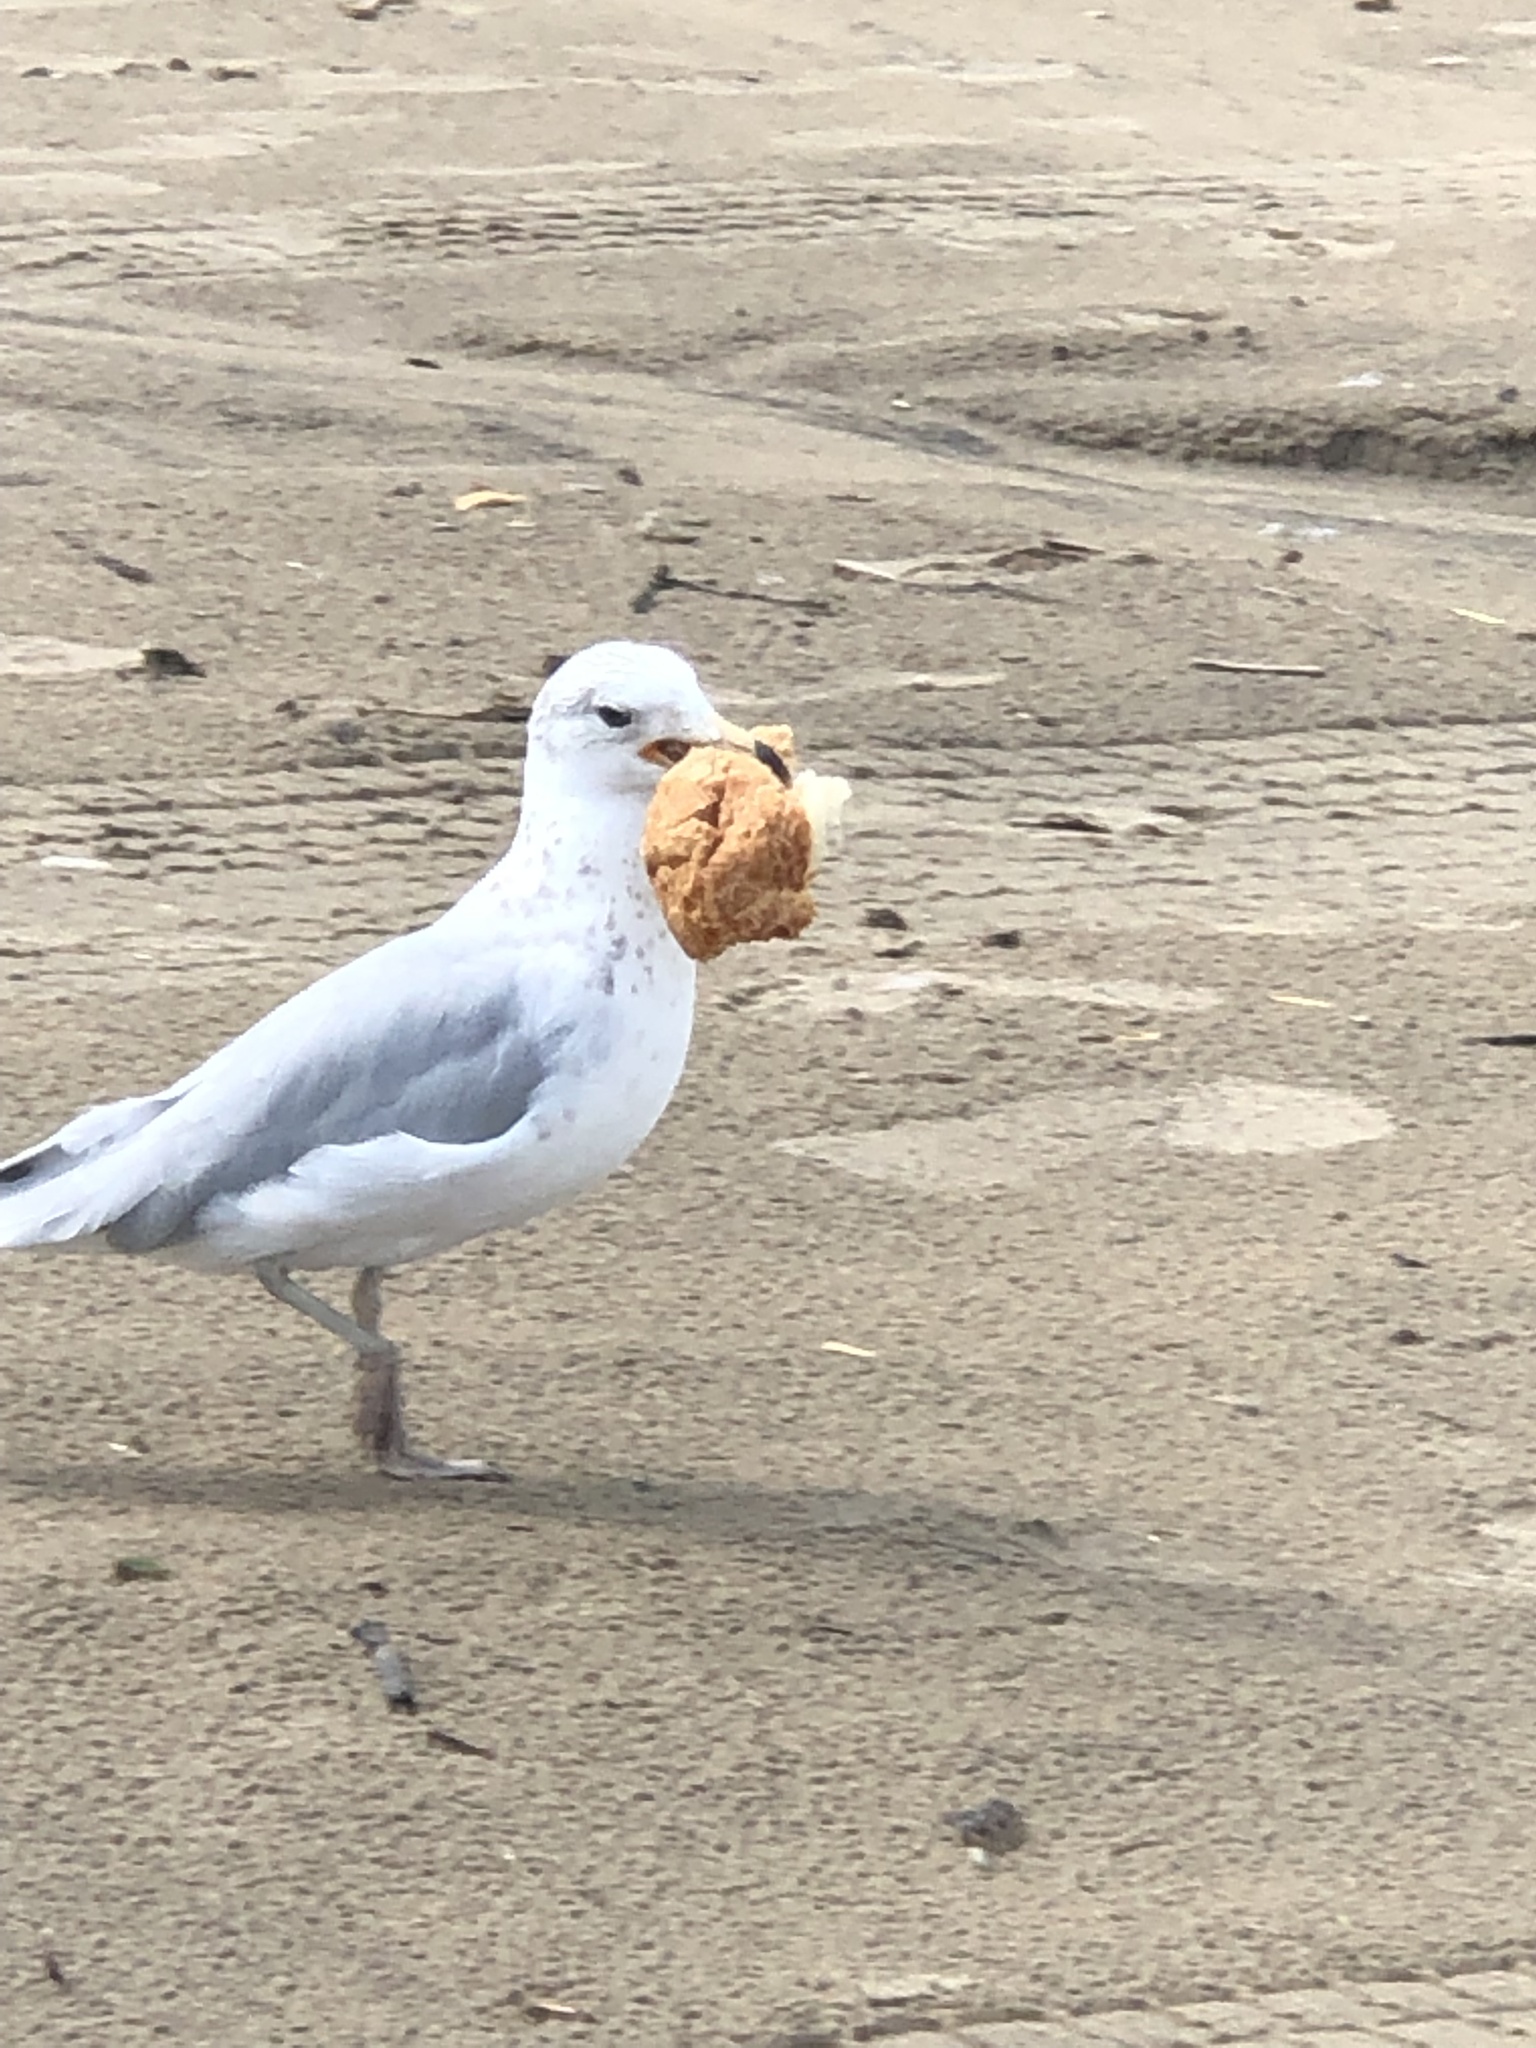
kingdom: Animalia
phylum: Chordata
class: Aves
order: Charadriiformes
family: Laridae
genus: Larus
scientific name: Larus delawarensis
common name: Ring-billed gull
